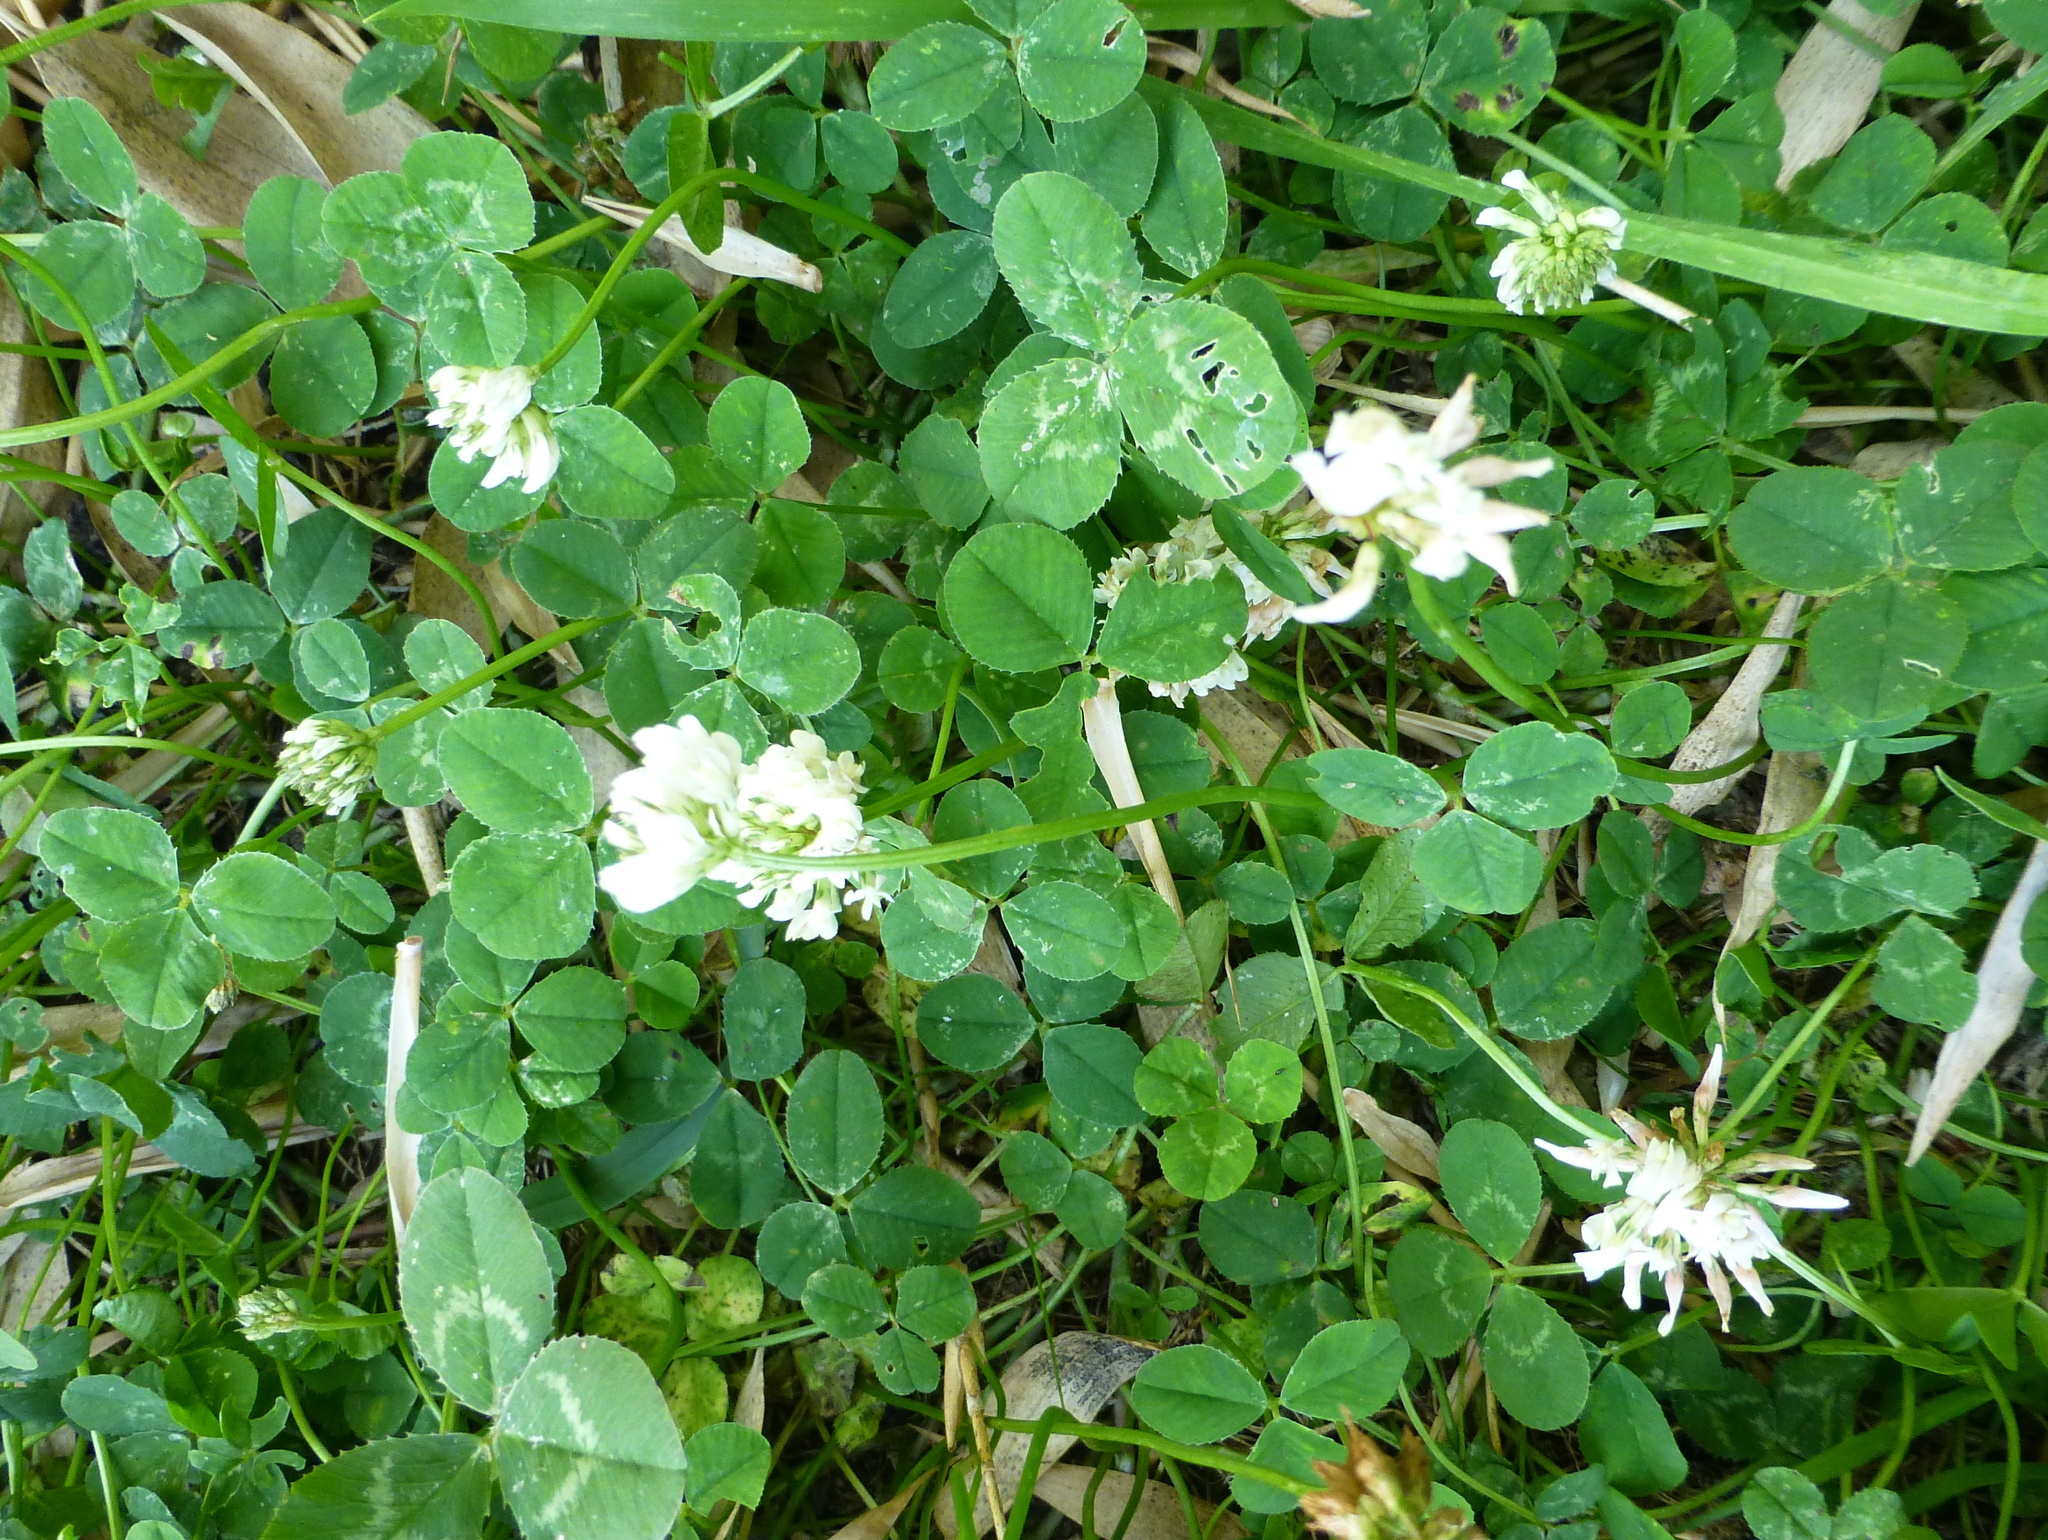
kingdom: Plantae
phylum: Tracheophyta
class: Magnoliopsida
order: Fabales
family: Fabaceae
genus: Trifolium
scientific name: Trifolium repens
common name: White clover
